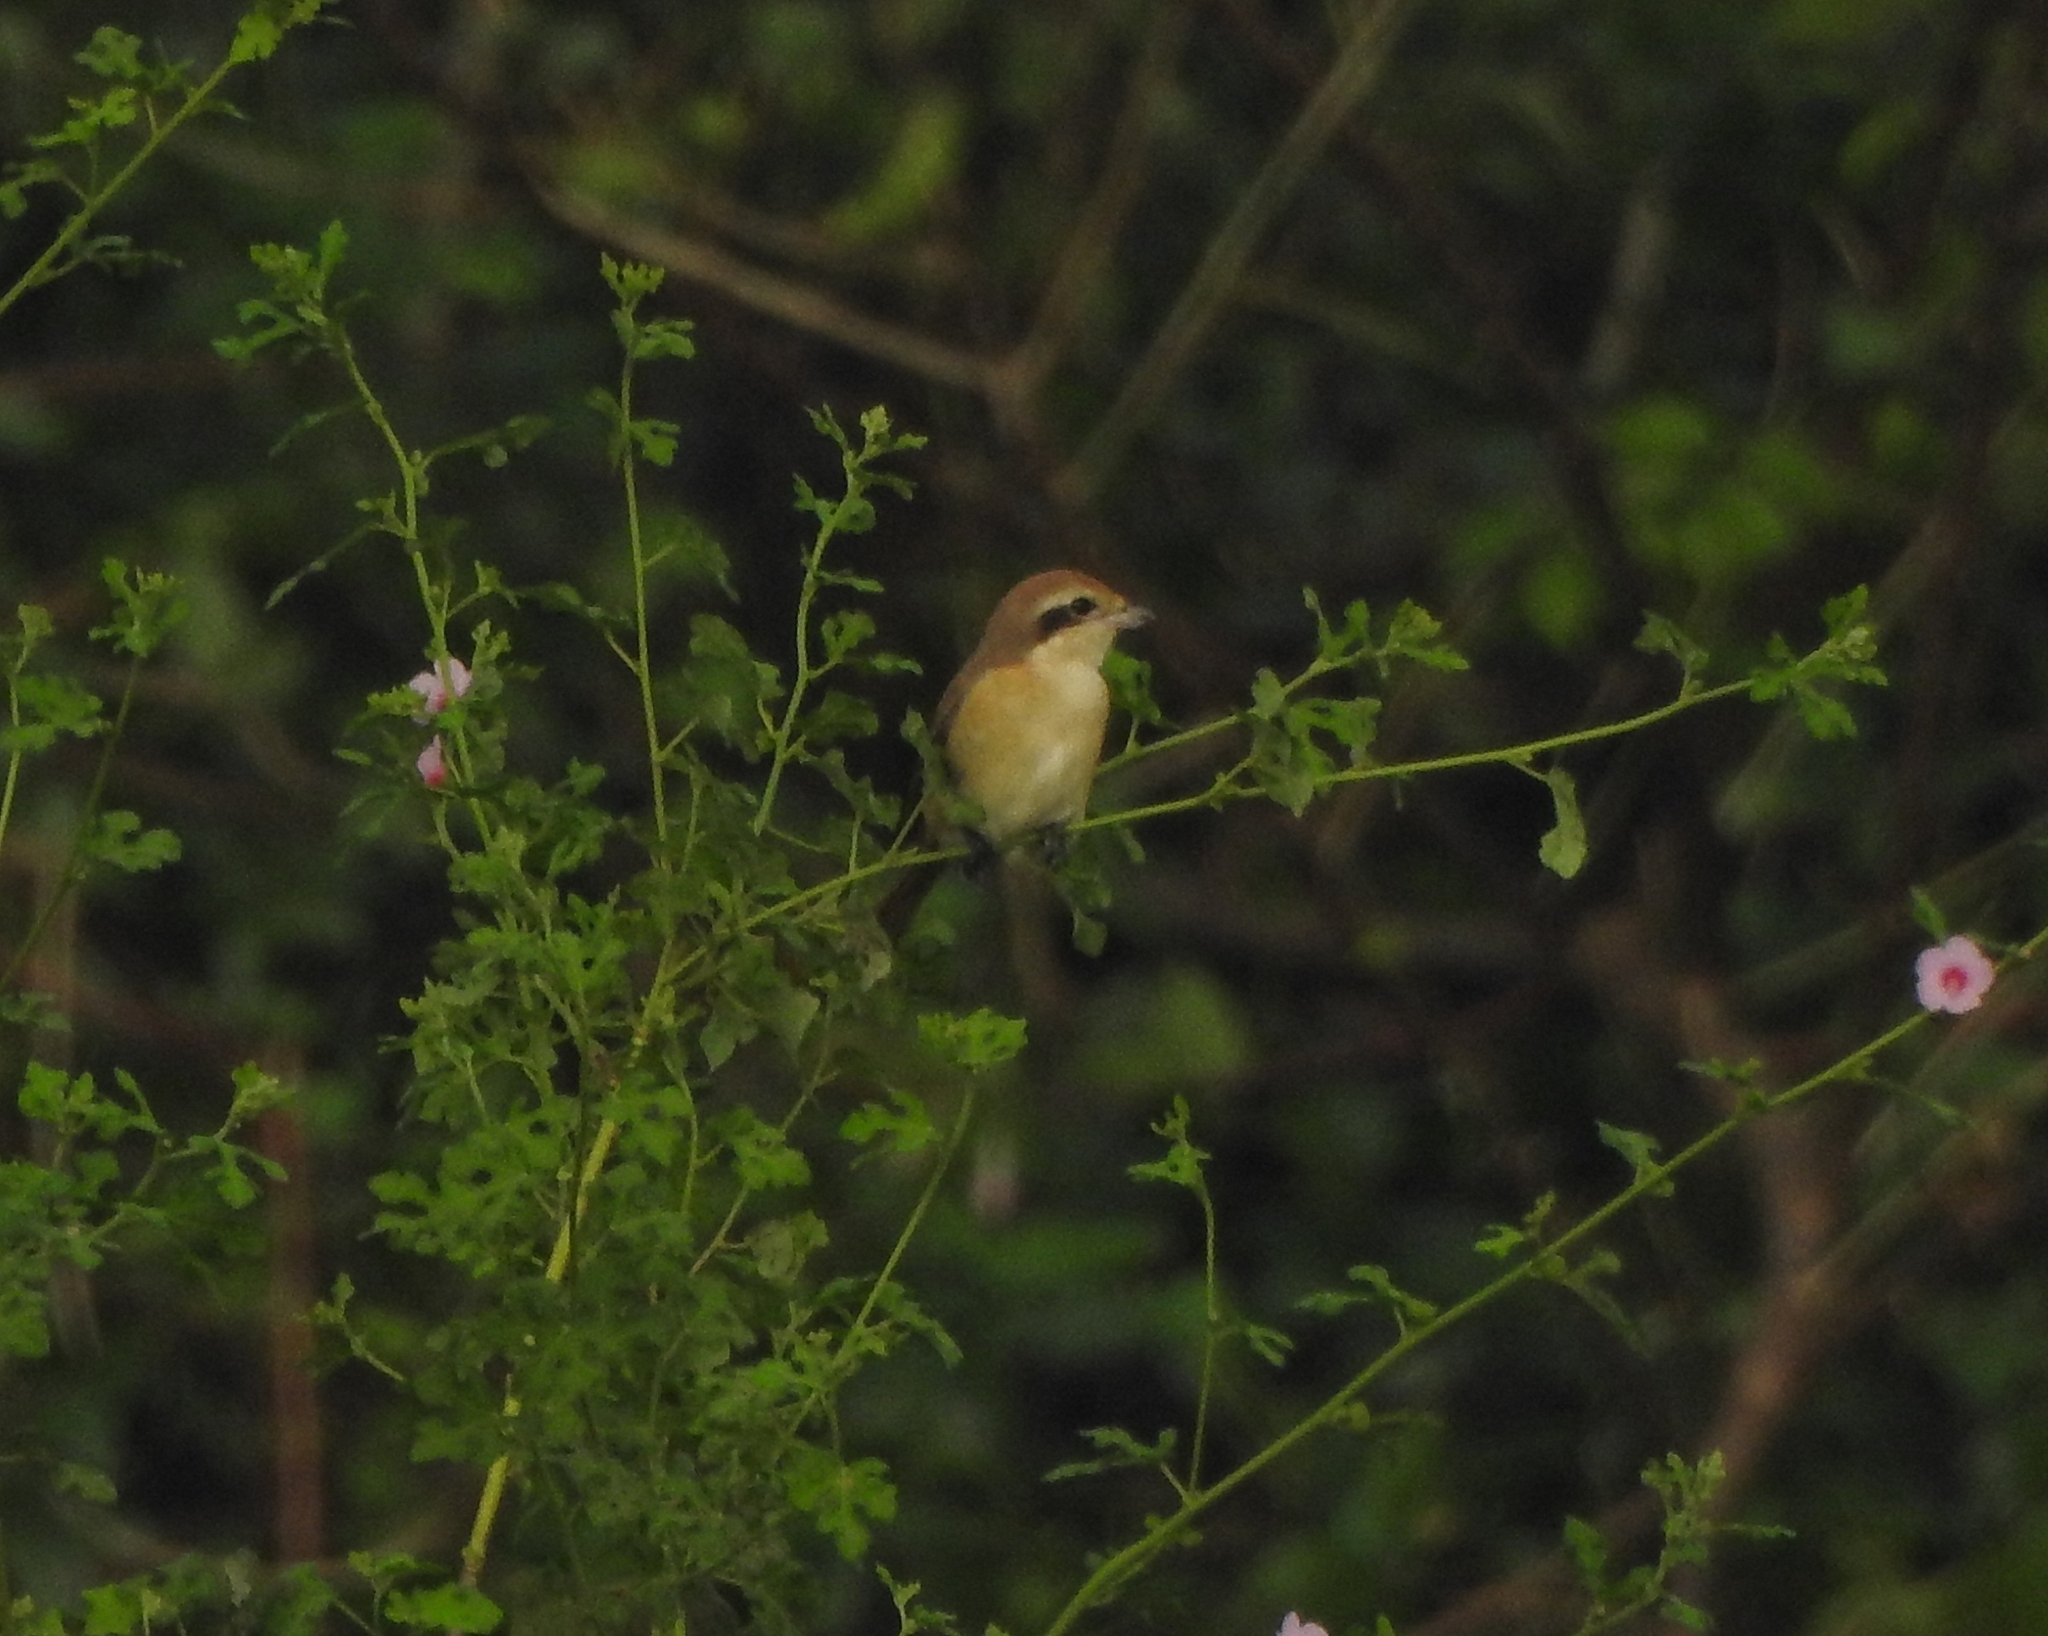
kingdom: Animalia
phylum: Chordata
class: Aves
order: Passeriformes
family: Laniidae
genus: Lanius
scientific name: Lanius cristatus
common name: Brown shrike
